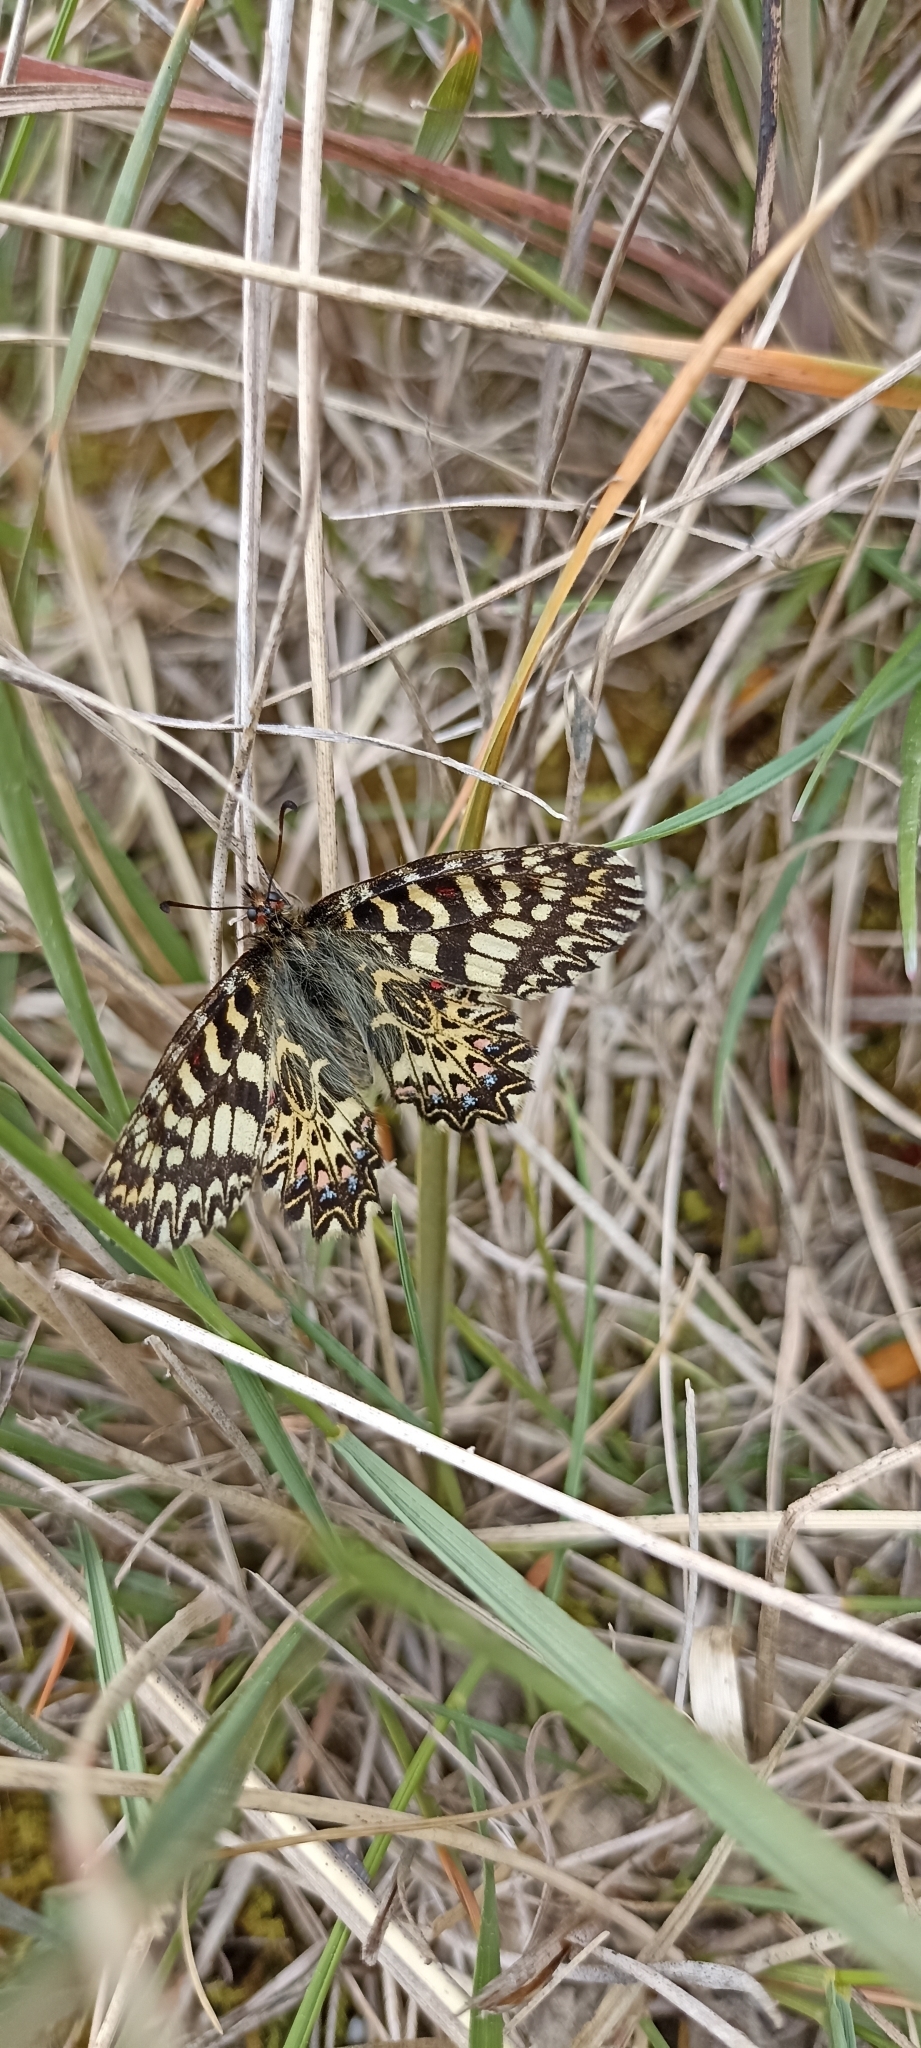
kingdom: Animalia
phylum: Arthropoda
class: Insecta
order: Lepidoptera
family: Papilionidae
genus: Zerynthia
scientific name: Zerynthia polyxena
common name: Southern festoon
